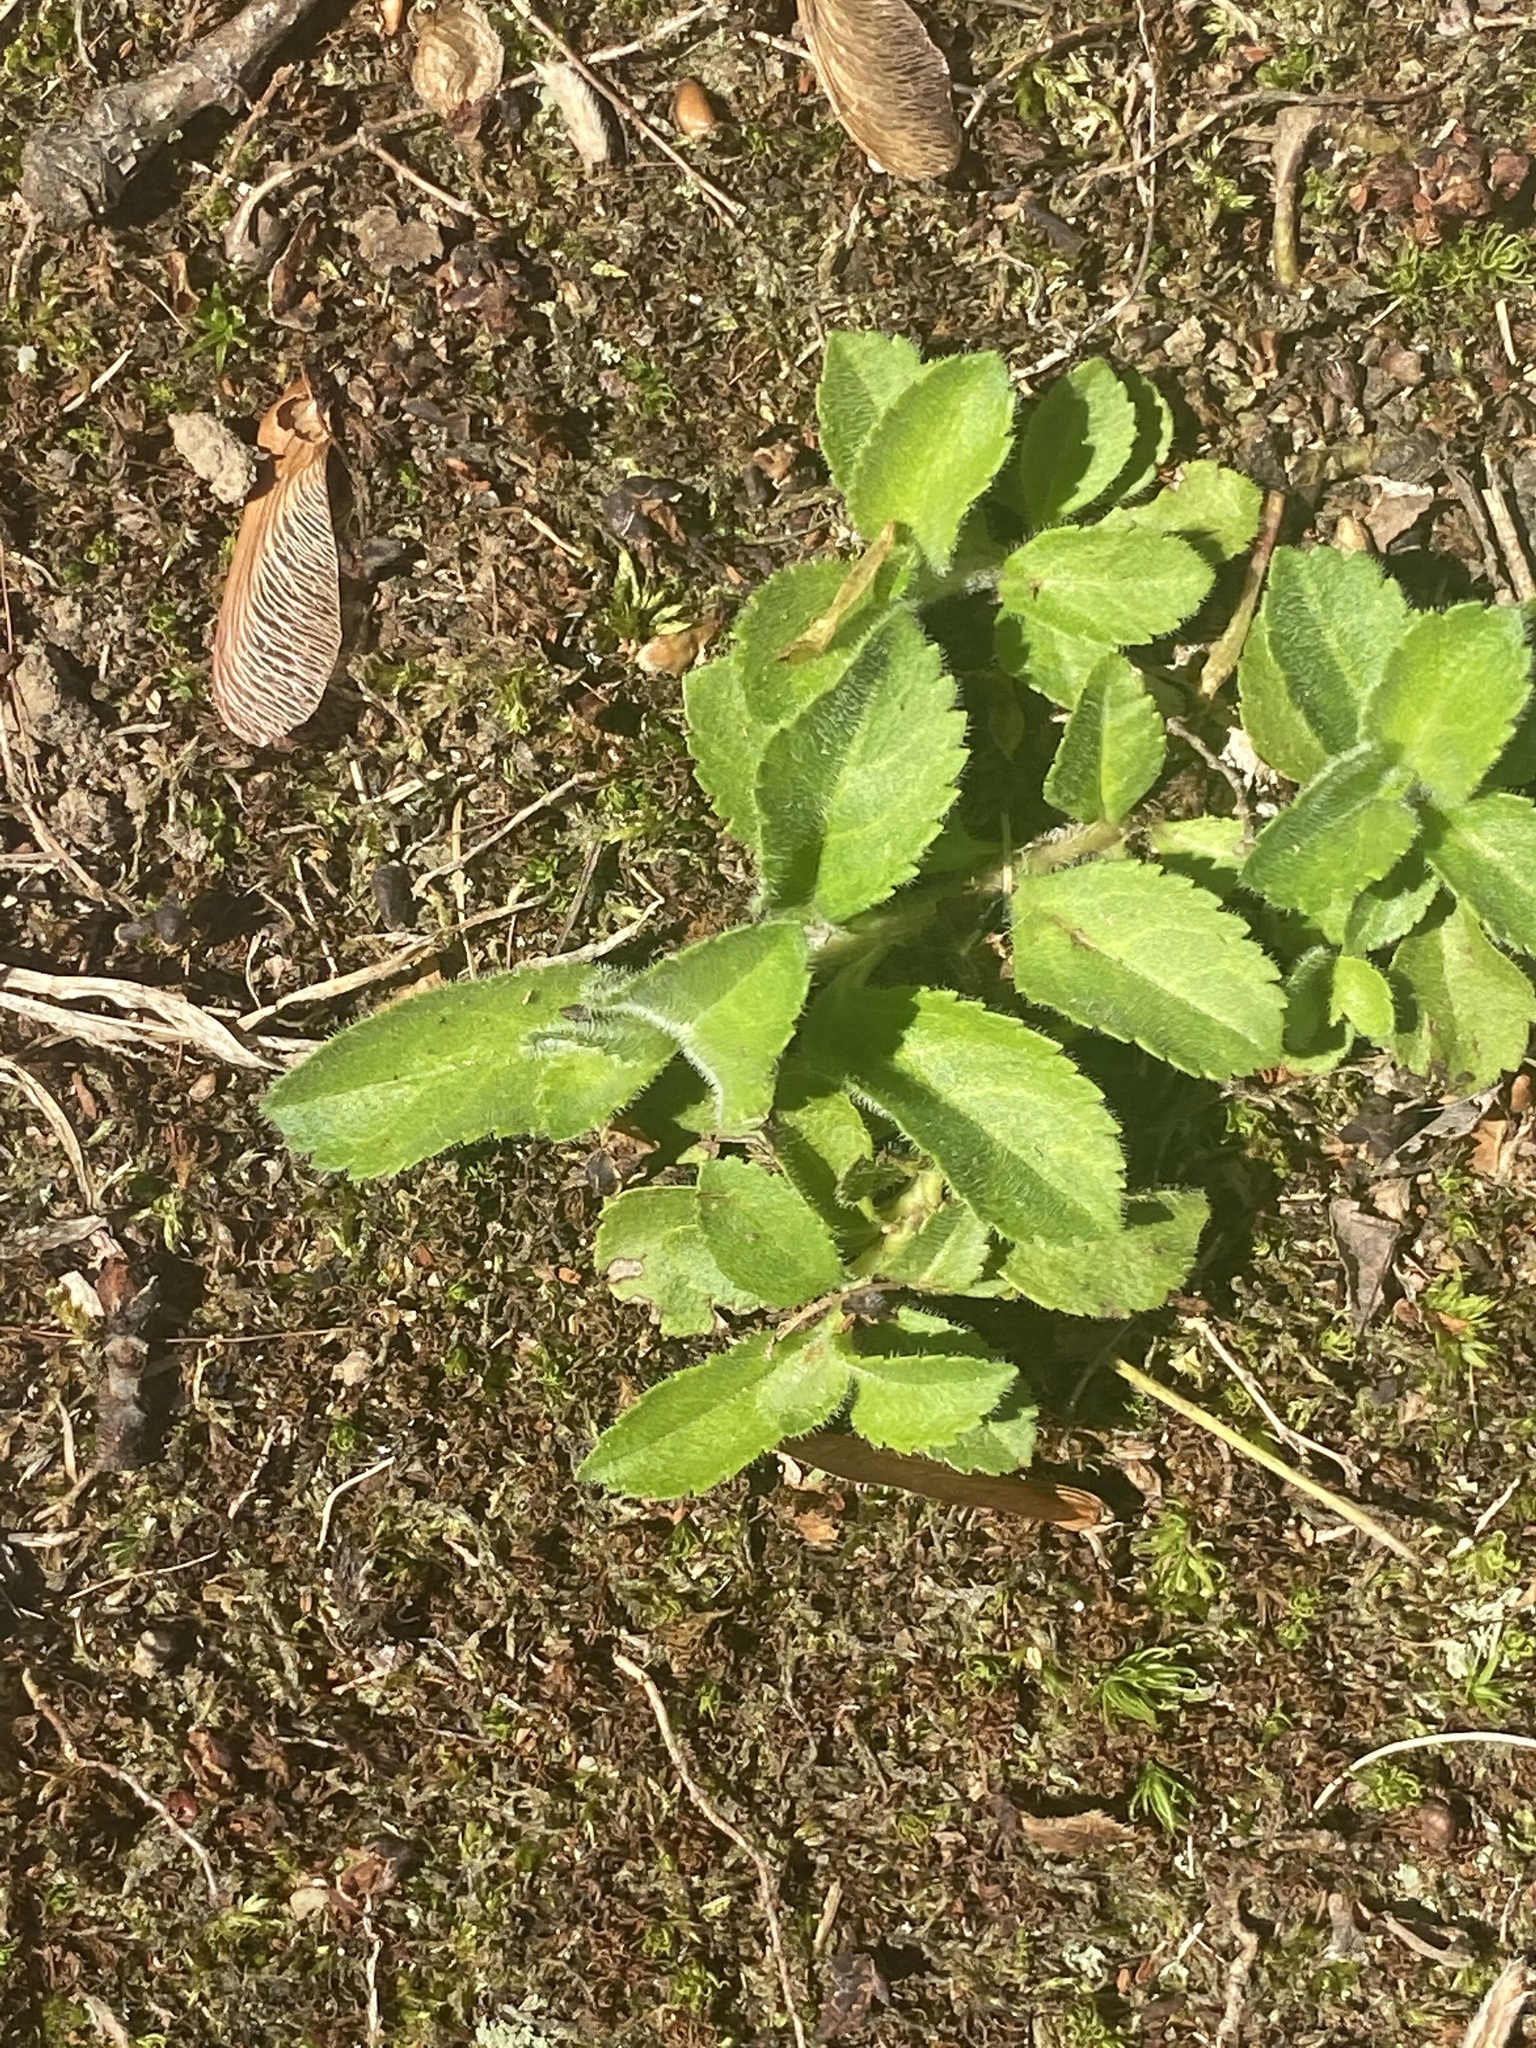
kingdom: Plantae
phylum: Tracheophyta
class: Magnoliopsida
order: Lamiales
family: Plantaginaceae
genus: Veronica
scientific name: Veronica officinalis
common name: Common speedwell
